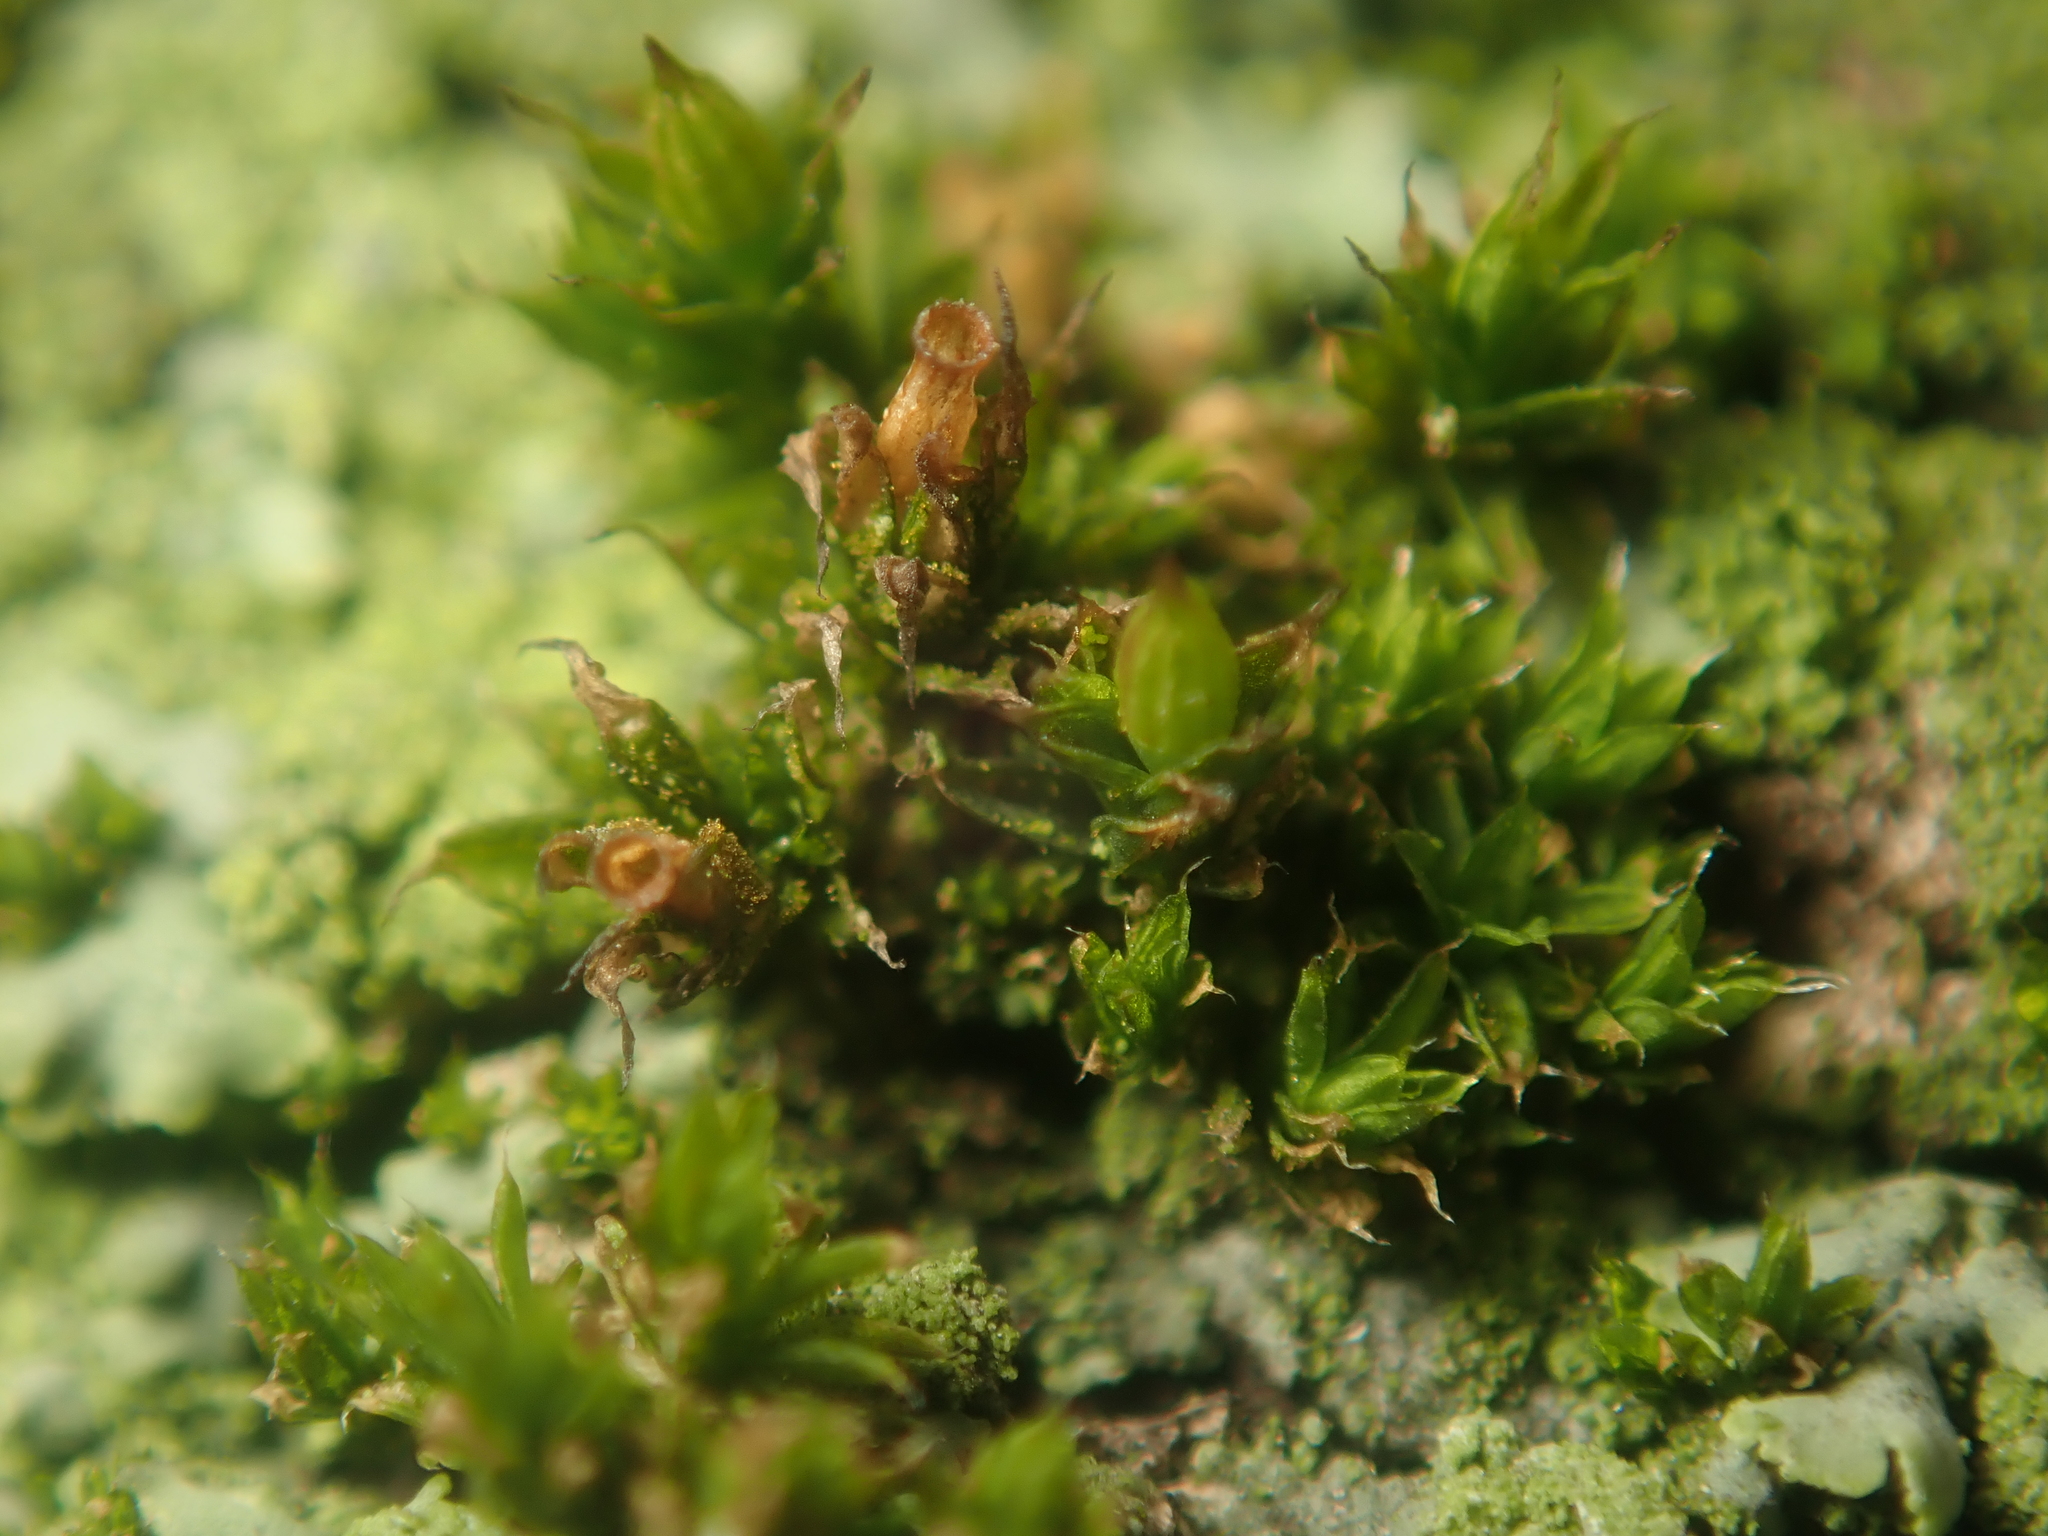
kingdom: Plantae
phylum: Bryophyta
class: Bryopsida
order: Orthotrichales
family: Orthotrichaceae
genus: Orthotrichum
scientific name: Orthotrichum diaphanum
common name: White-tipped bristle-moss
